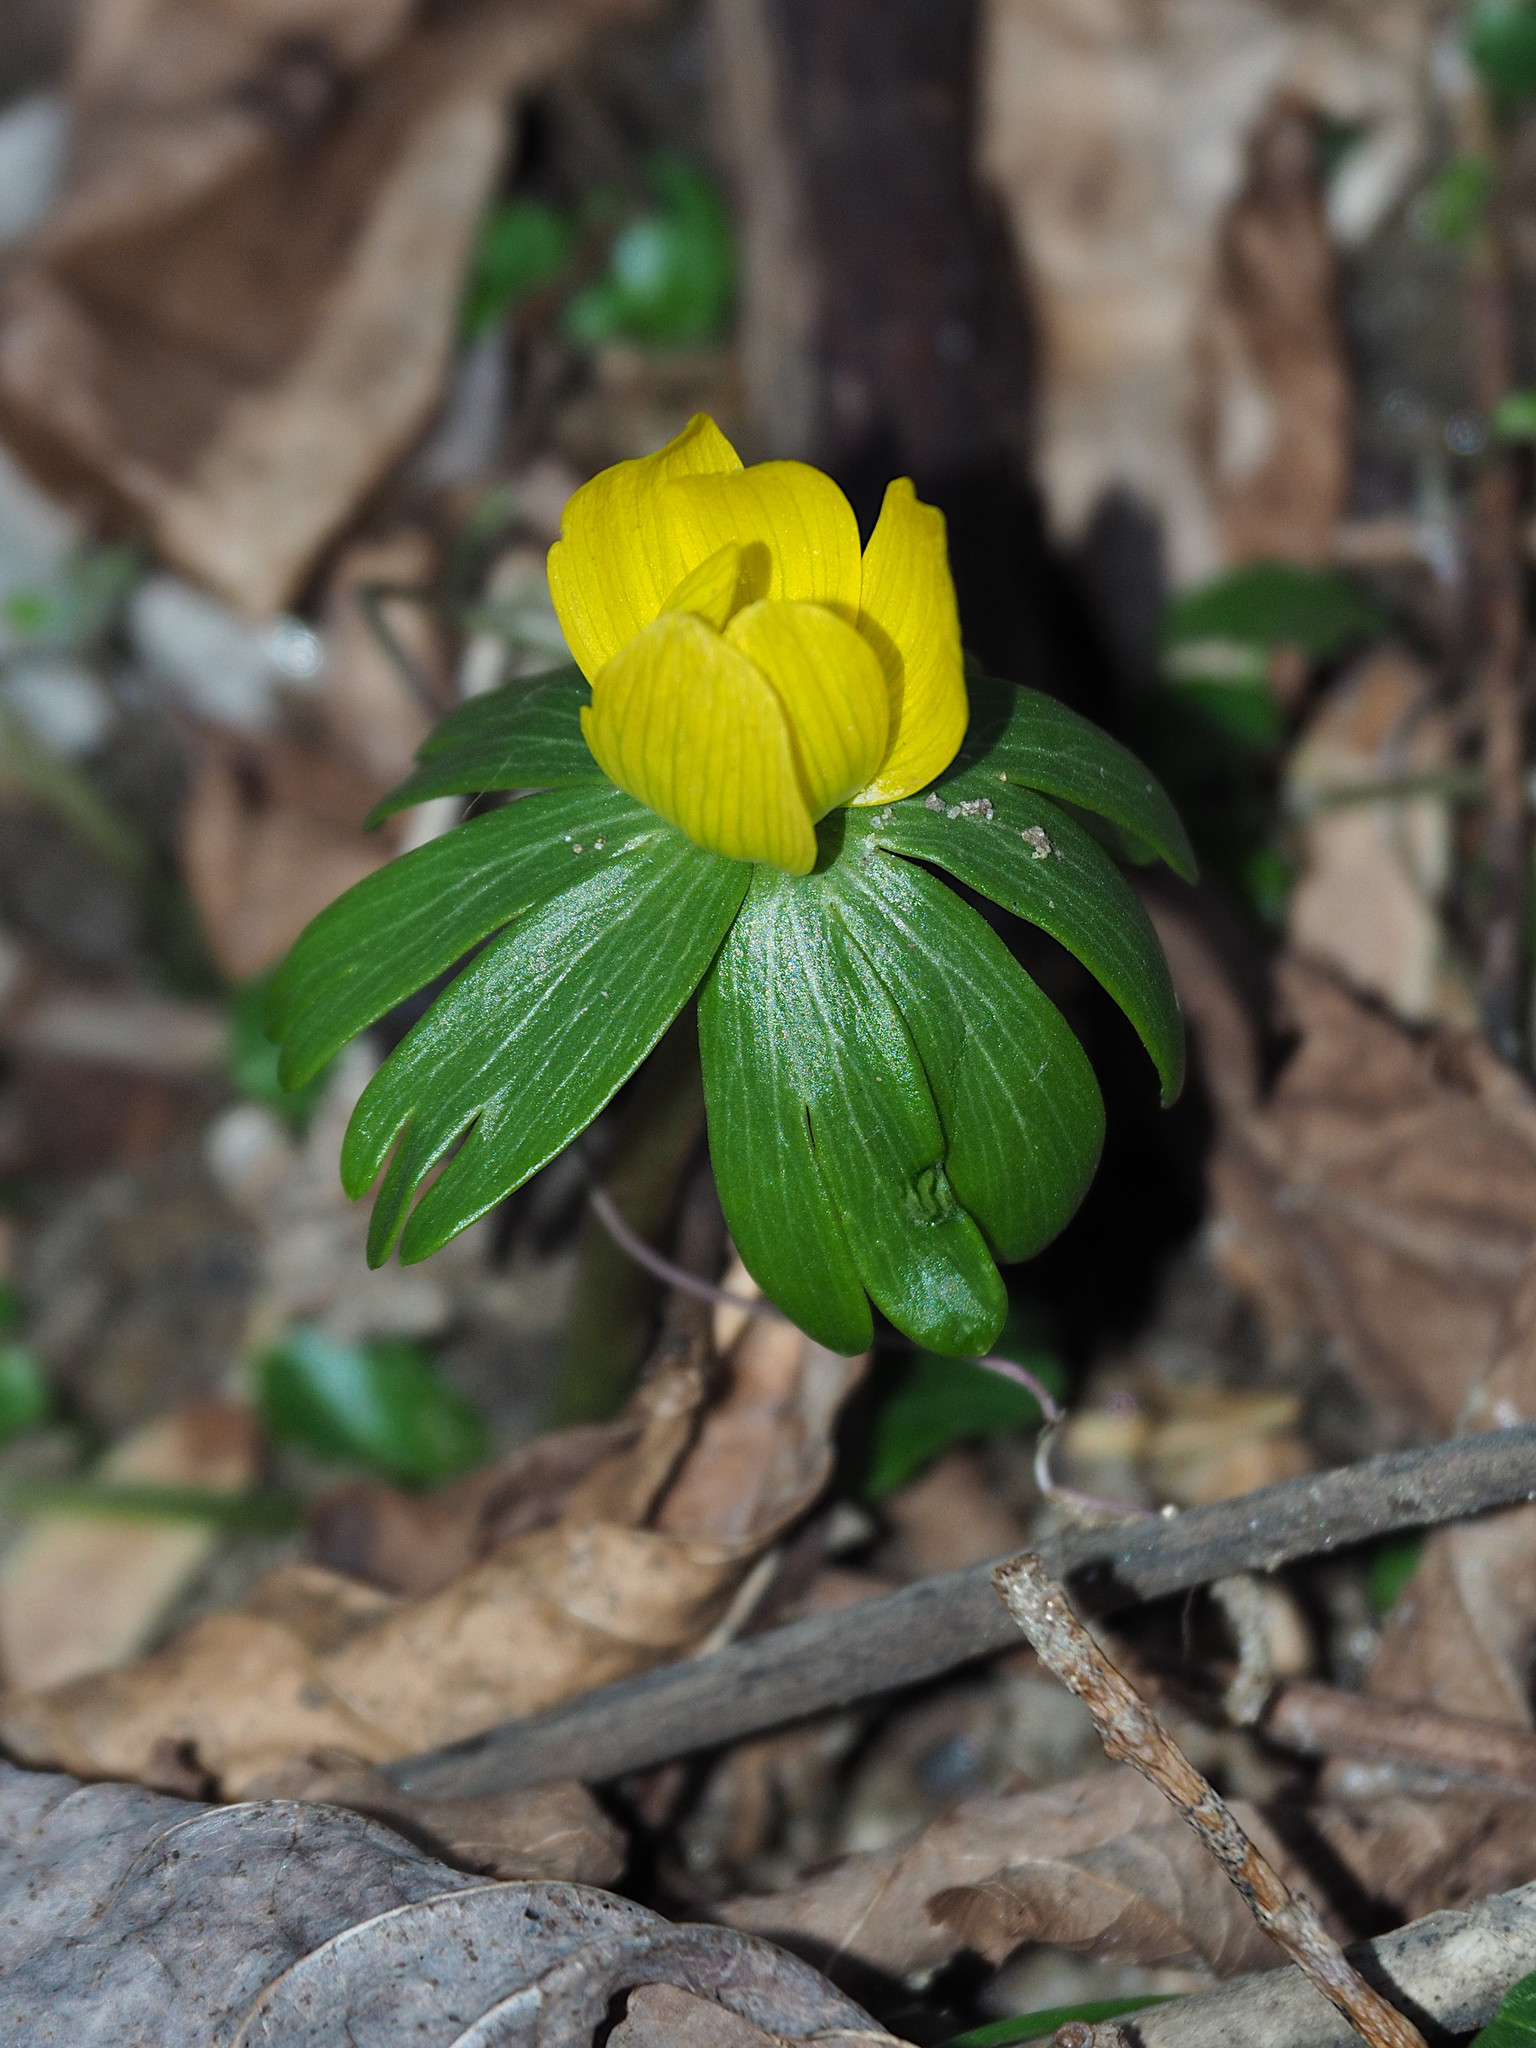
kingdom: Plantae
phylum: Tracheophyta
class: Magnoliopsida
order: Ranunculales
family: Ranunculaceae
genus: Eranthis
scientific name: Eranthis hyemalis
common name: Winter aconite
